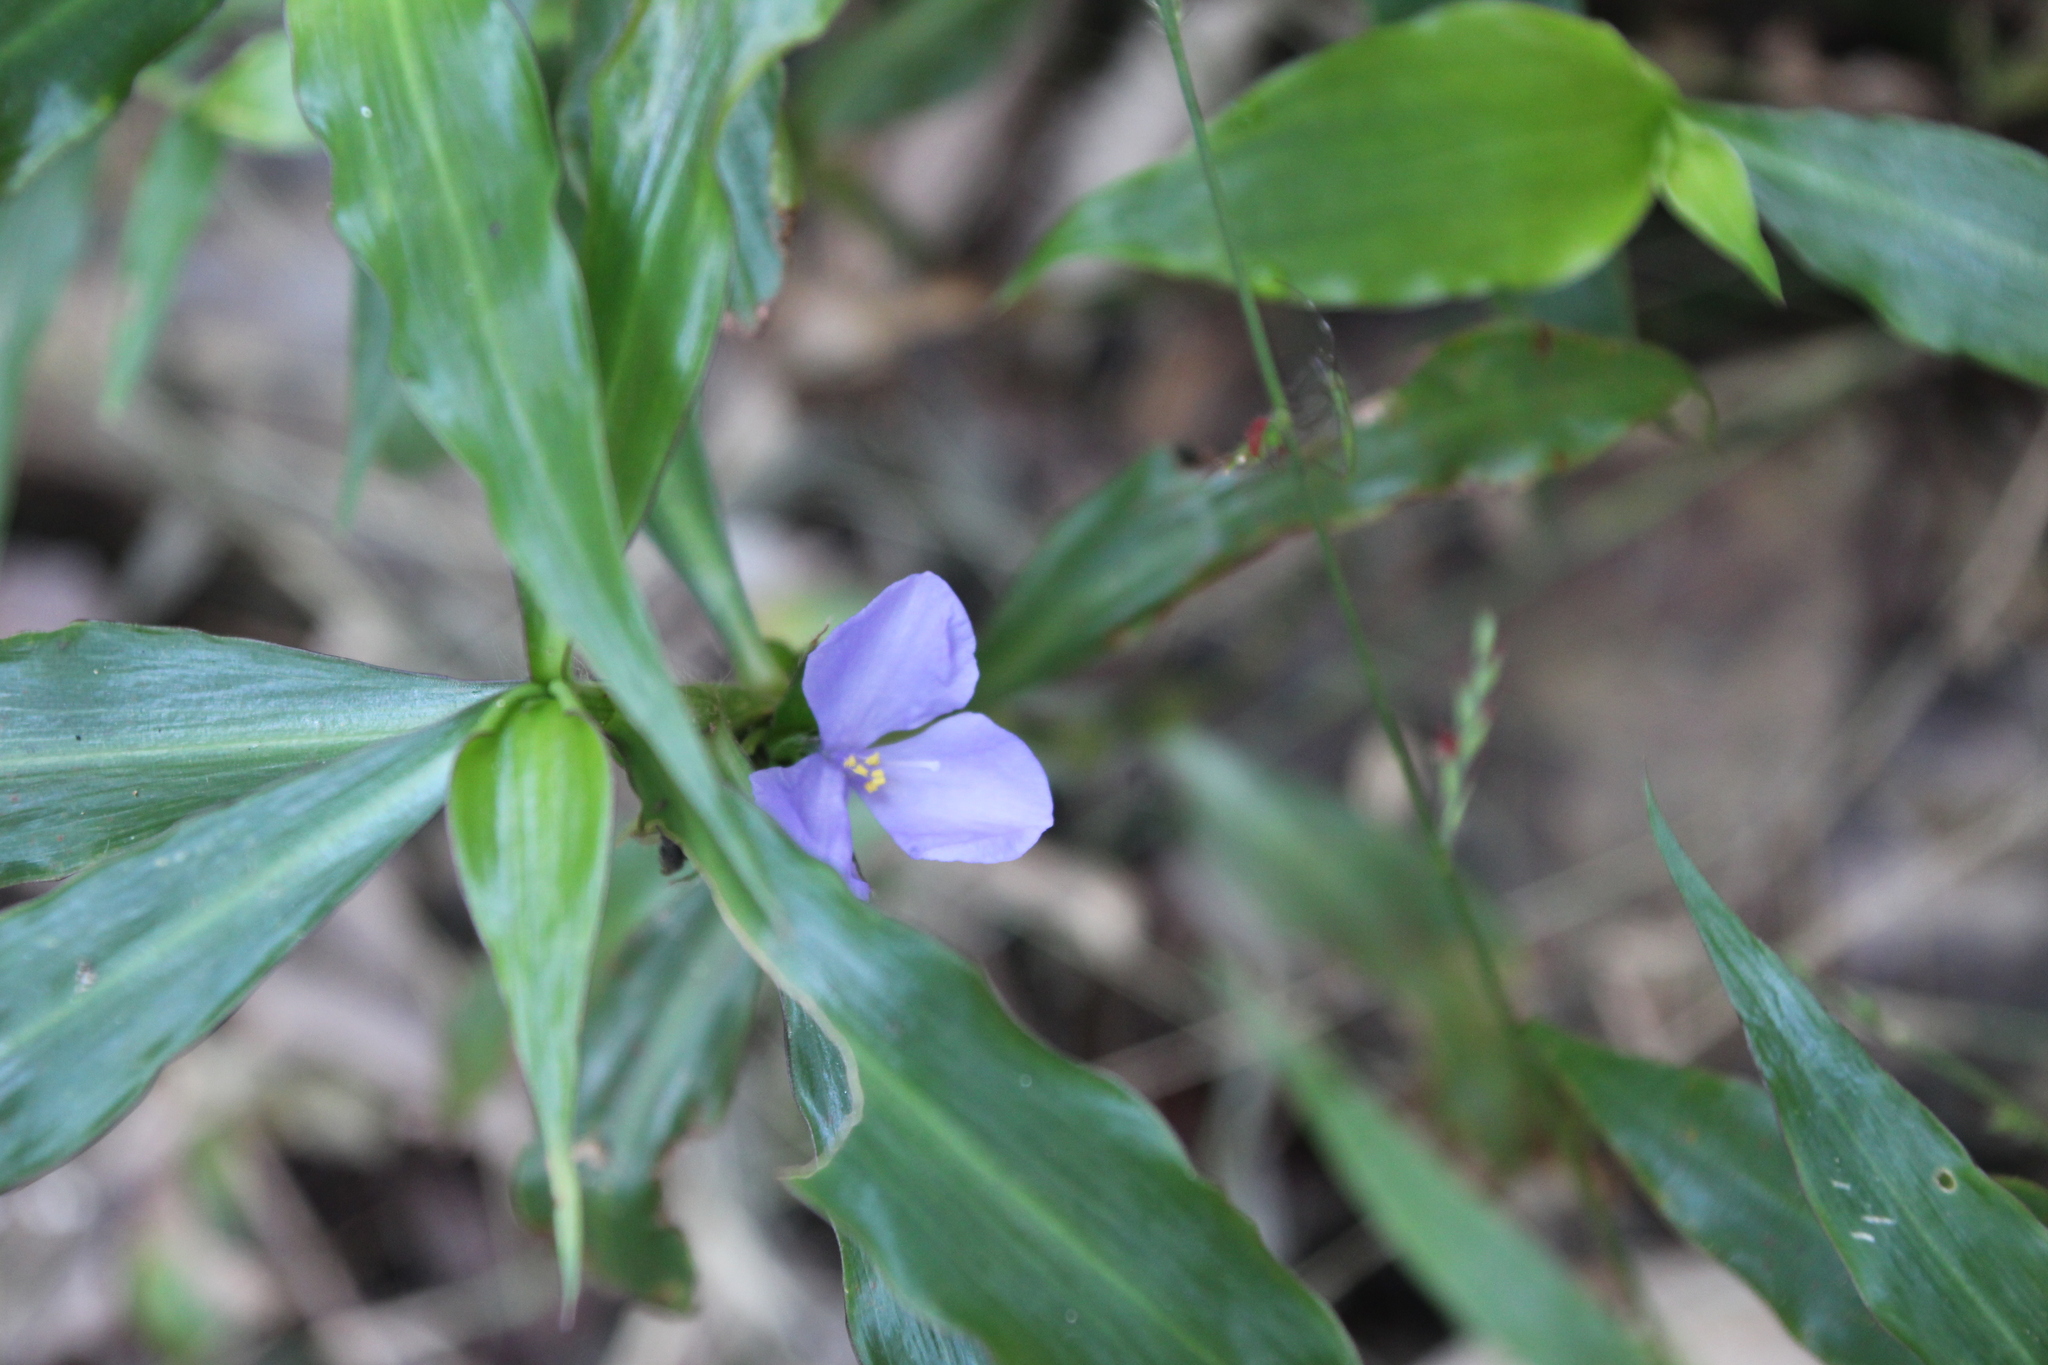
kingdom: Plantae
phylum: Tracheophyta
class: Liliopsida
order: Commelinales
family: Commelinaceae
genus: Coleotrype
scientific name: Coleotrype natalensis
